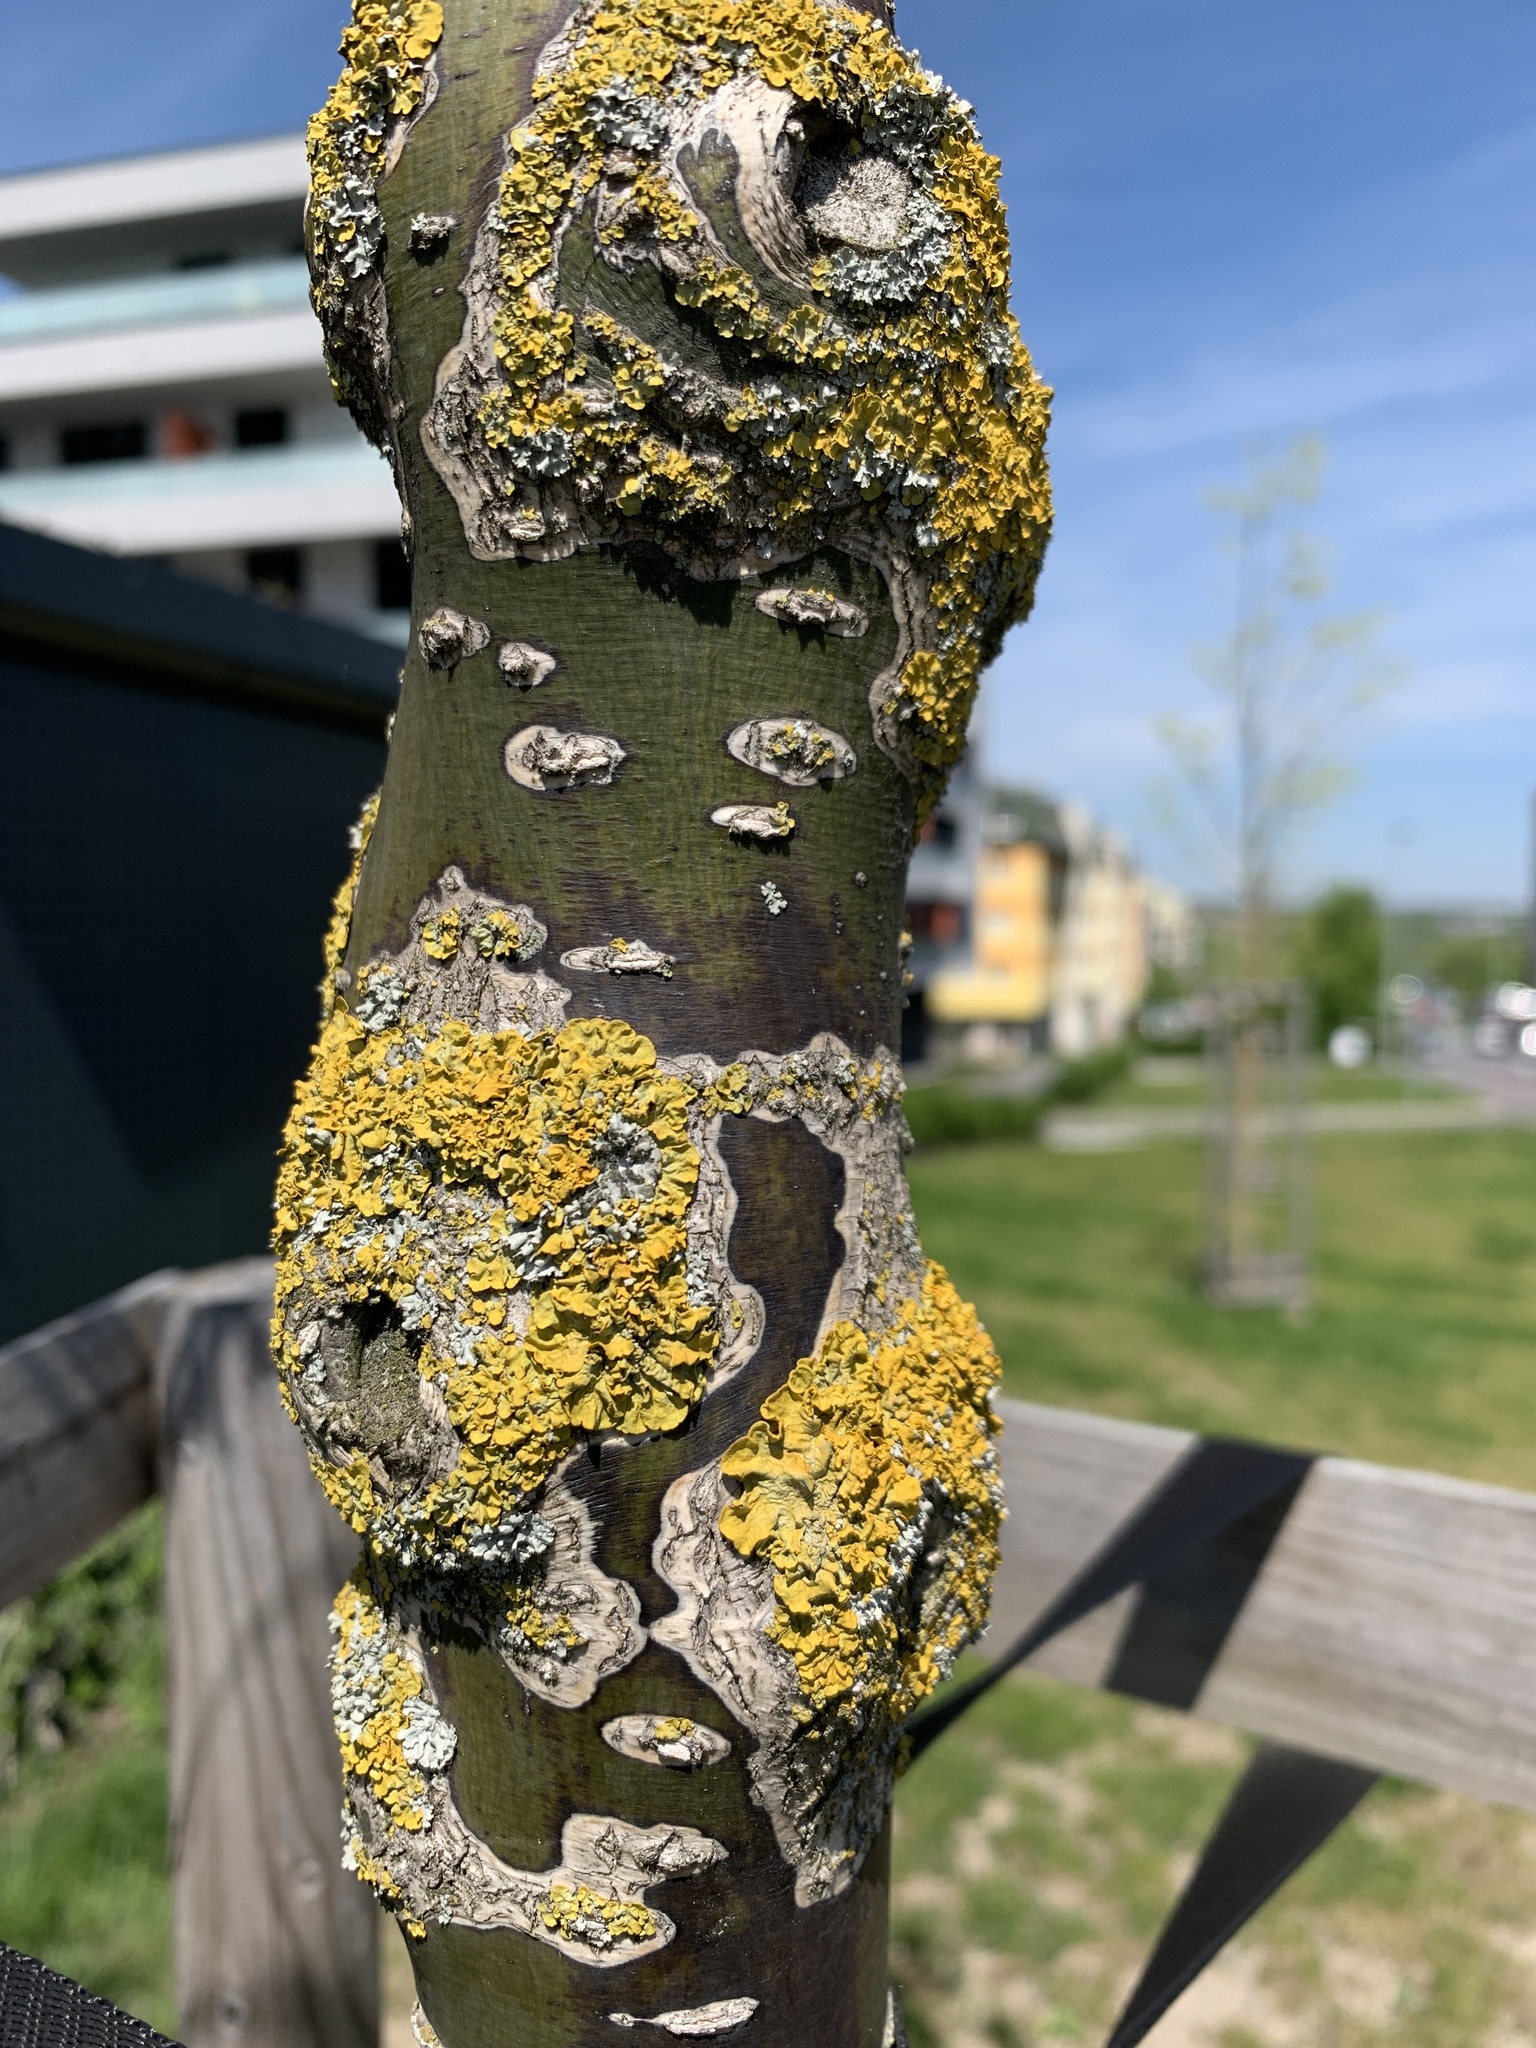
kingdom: Fungi
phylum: Ascomycota
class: Lecanoromycetes
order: Teloschistales
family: Teloschistaceae
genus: Xanthoria
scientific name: Xanthoria parietina
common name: Common orange lichen
